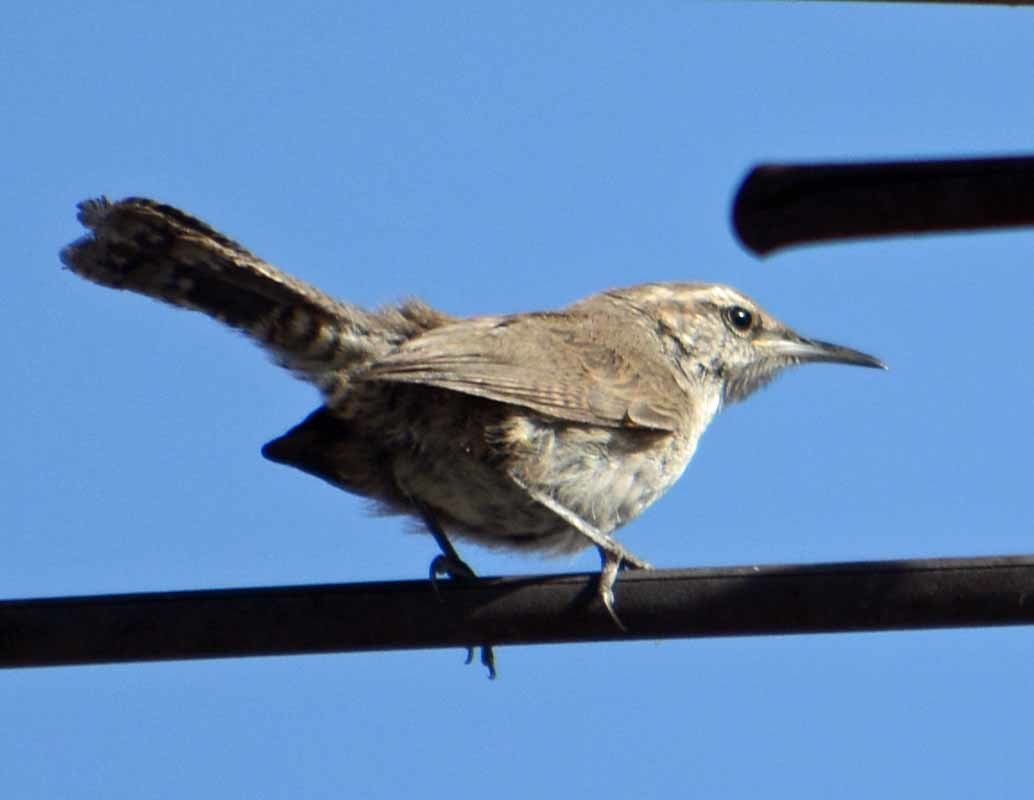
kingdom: Animalia
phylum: Chordata
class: Aves
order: Passeriformes
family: Troglodytidae
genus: Thryomanes
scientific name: Thryomanes bewickii
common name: Bewick's wren
